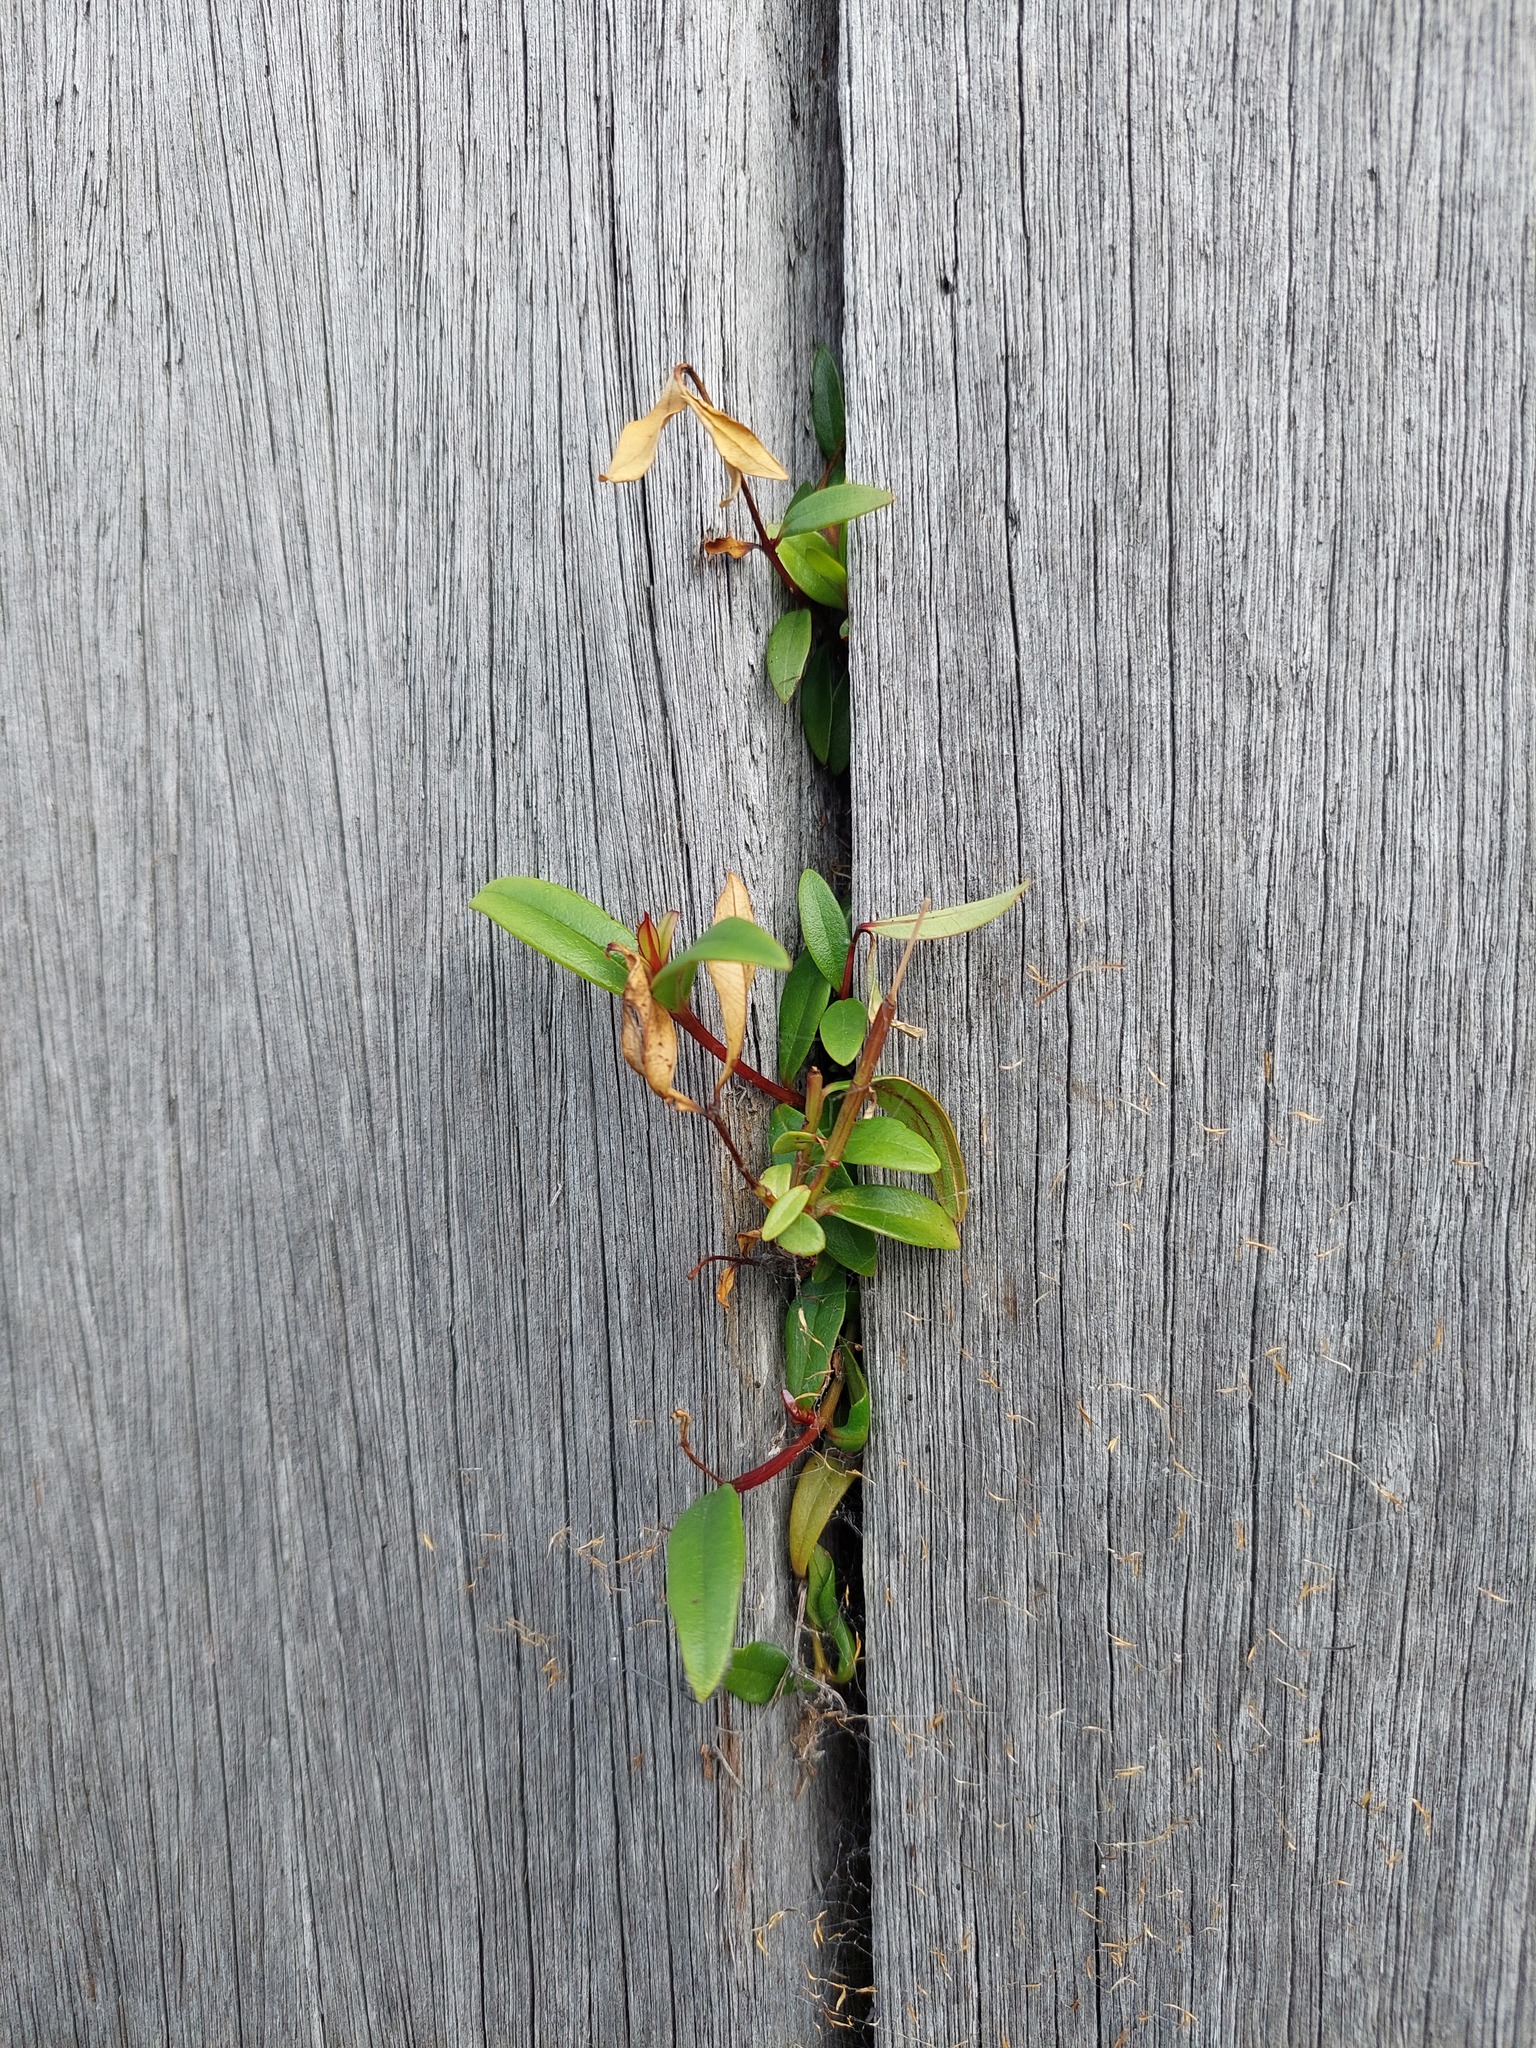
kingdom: Plantae
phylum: Tracheophyta
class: Magnoliopsida
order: Myrtales
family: Myrtaceae
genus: Metrosideros
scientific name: Metrosideros excelsa
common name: New zealand christmastree
